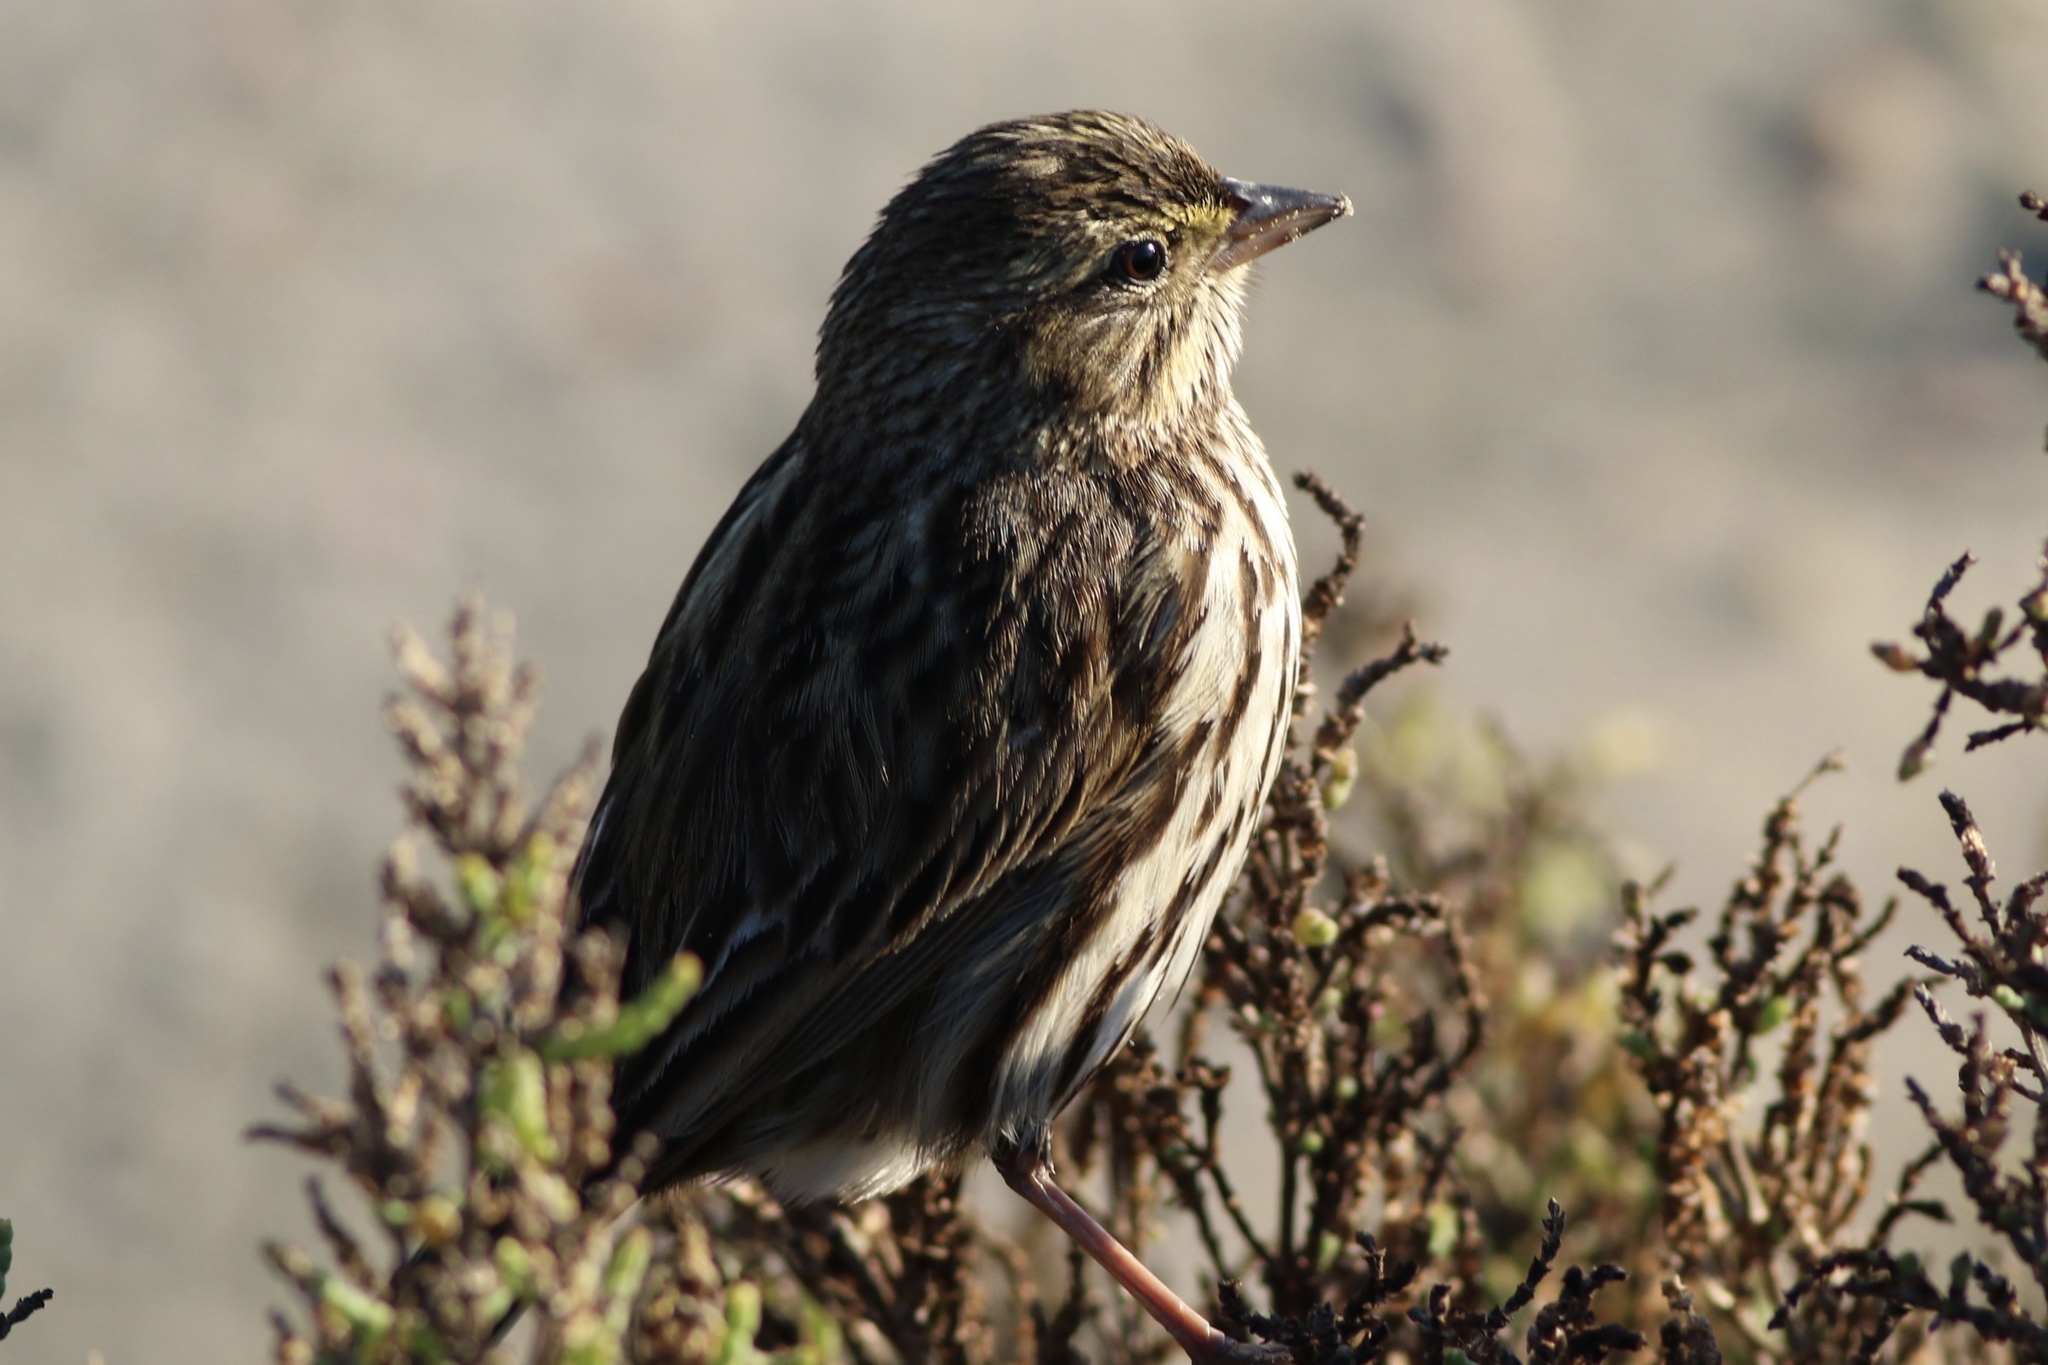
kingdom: Animalia
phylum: Chordata
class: Aves
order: Passeriformes
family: Passerellidae
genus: Passerculus
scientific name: Passerculus sandwichensis
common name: Savannah sparrow
